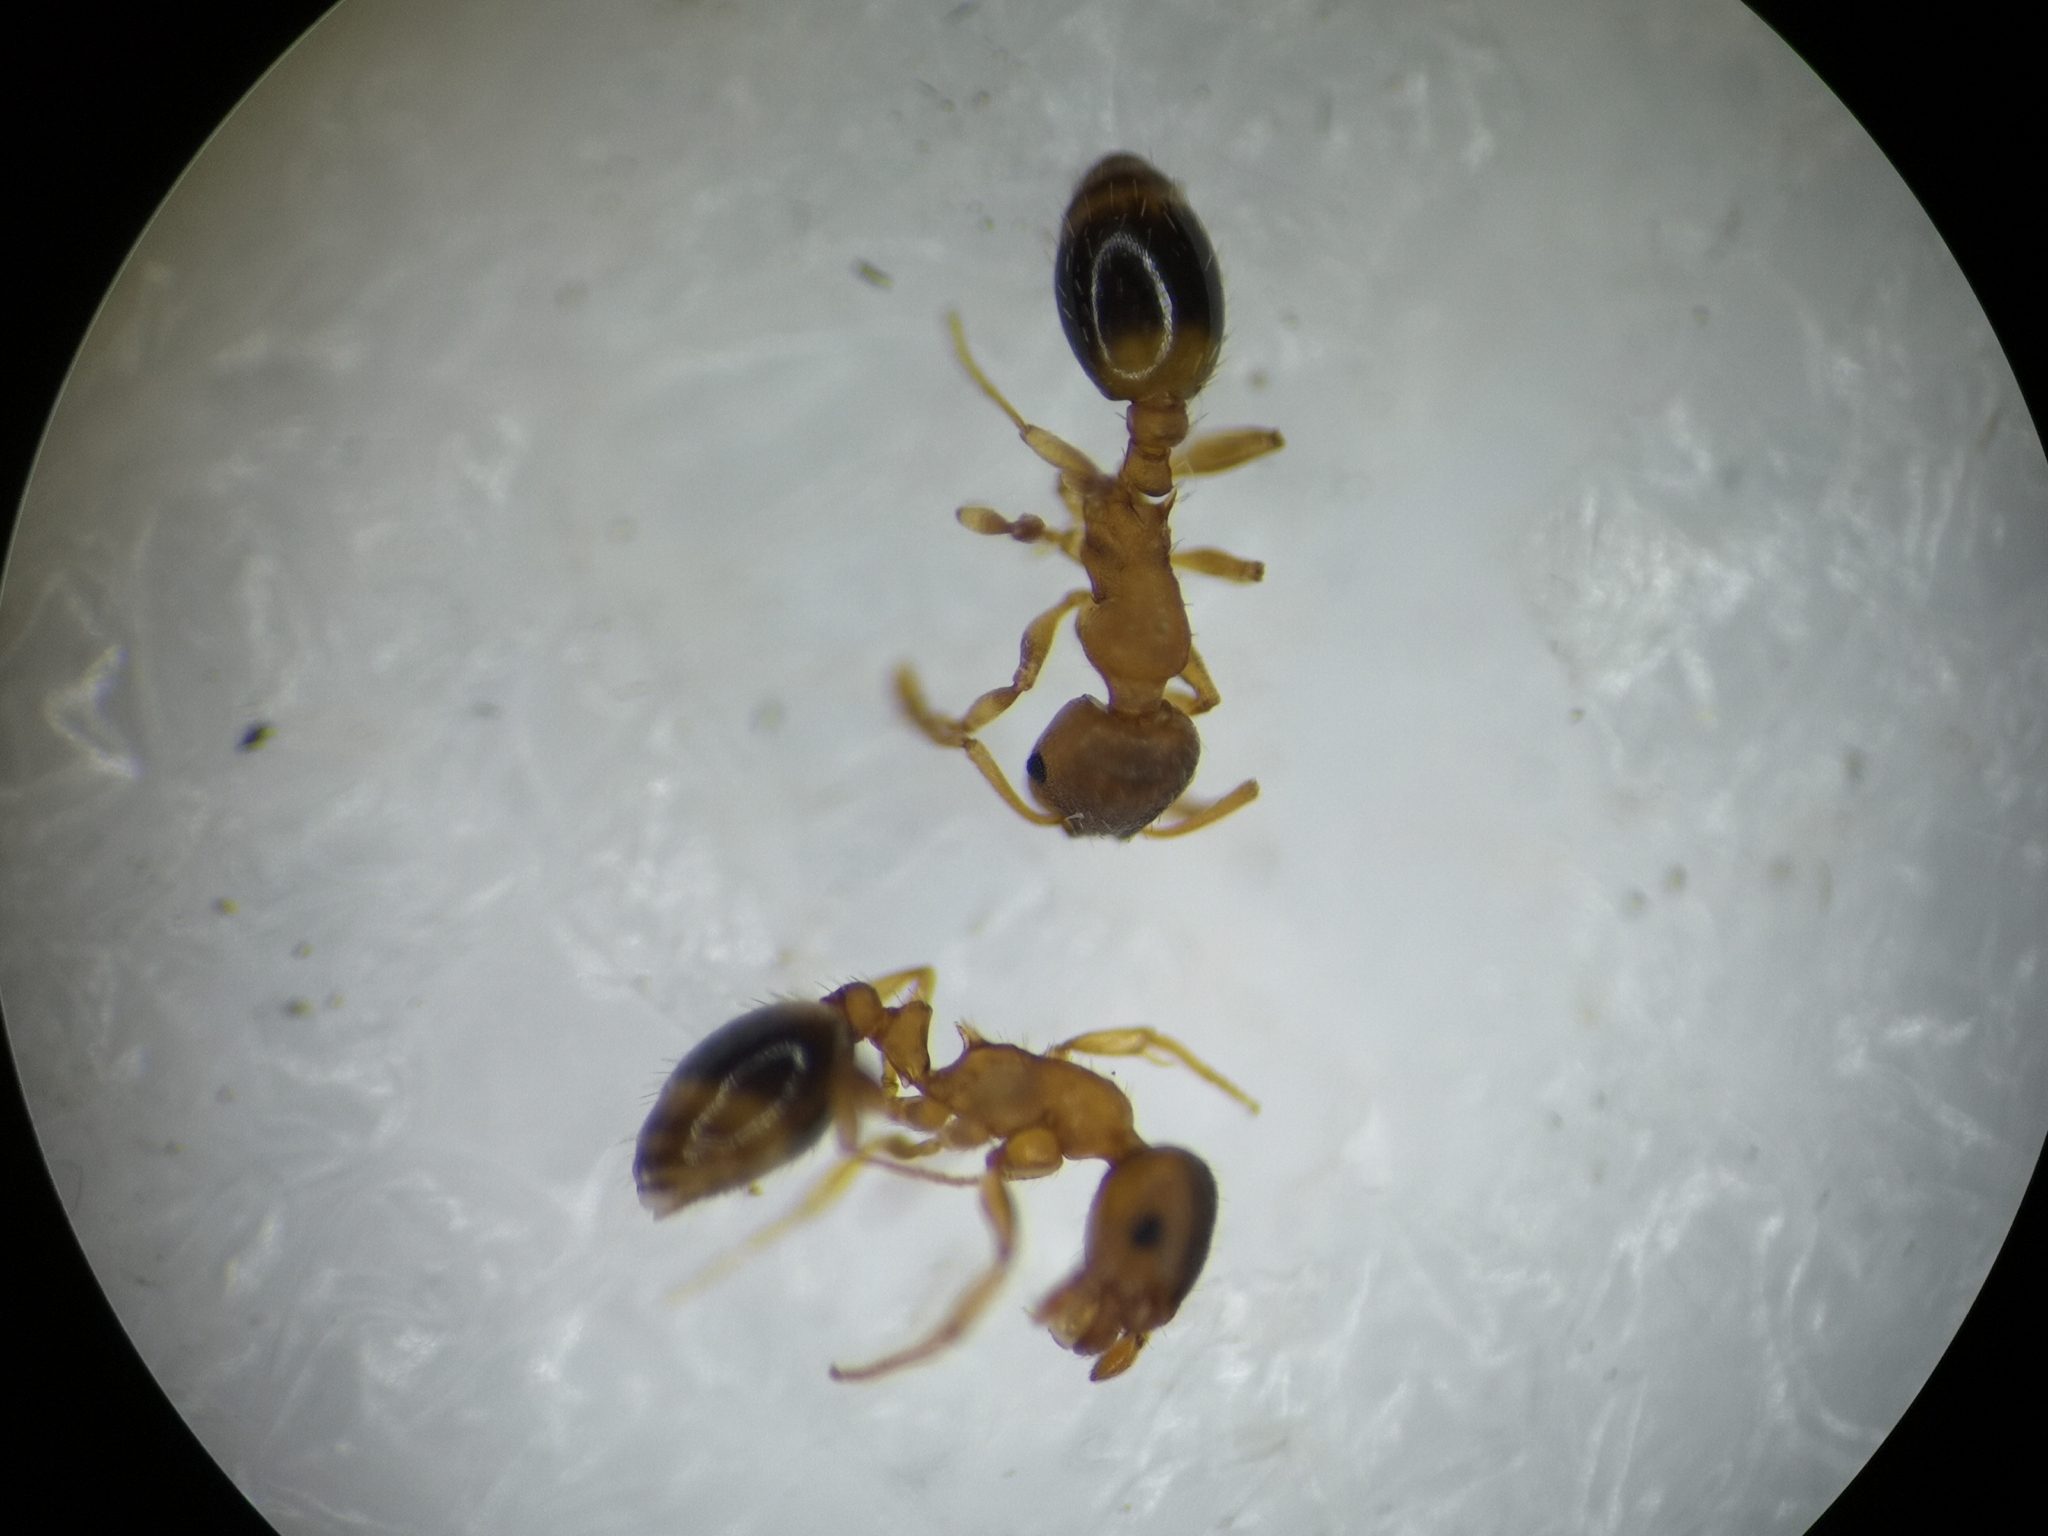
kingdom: Animalia
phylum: Arthropoda
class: Insecta
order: Hymenoptera
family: Formicidae
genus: Leptothorax
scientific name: Leptothorax nylanderi
